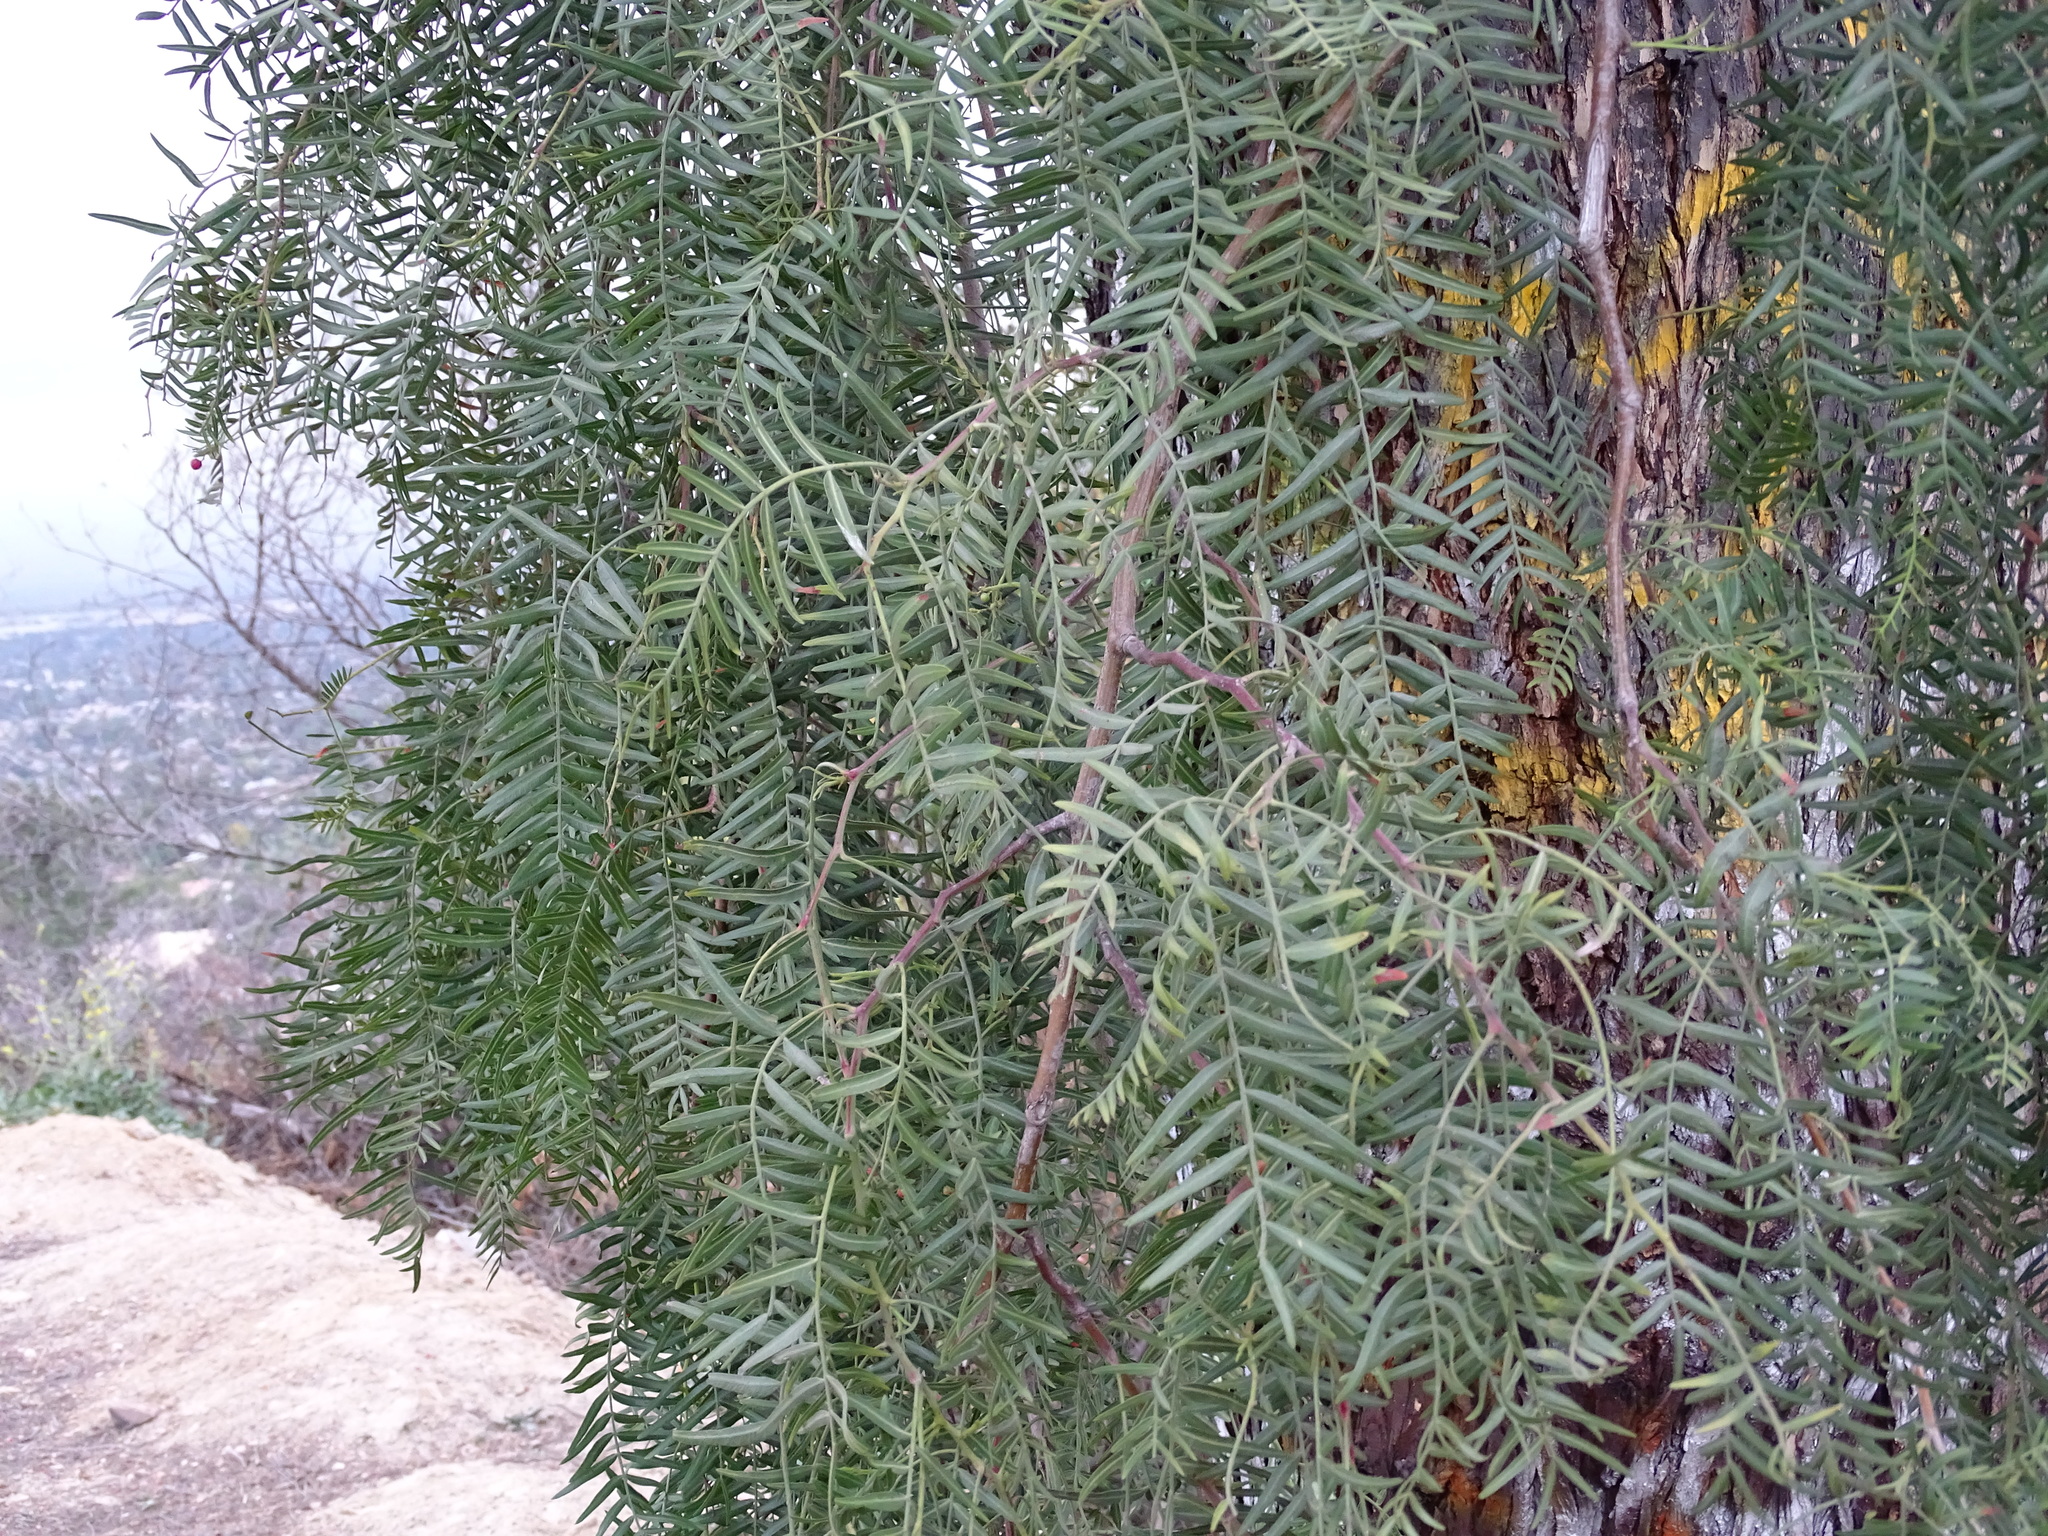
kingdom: Plantae
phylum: Tracheophyta
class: Magnoliopsida
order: Sapindales
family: Anacardiaceae
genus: Schinus
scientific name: Schinus molle
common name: Peruvian peppertree
